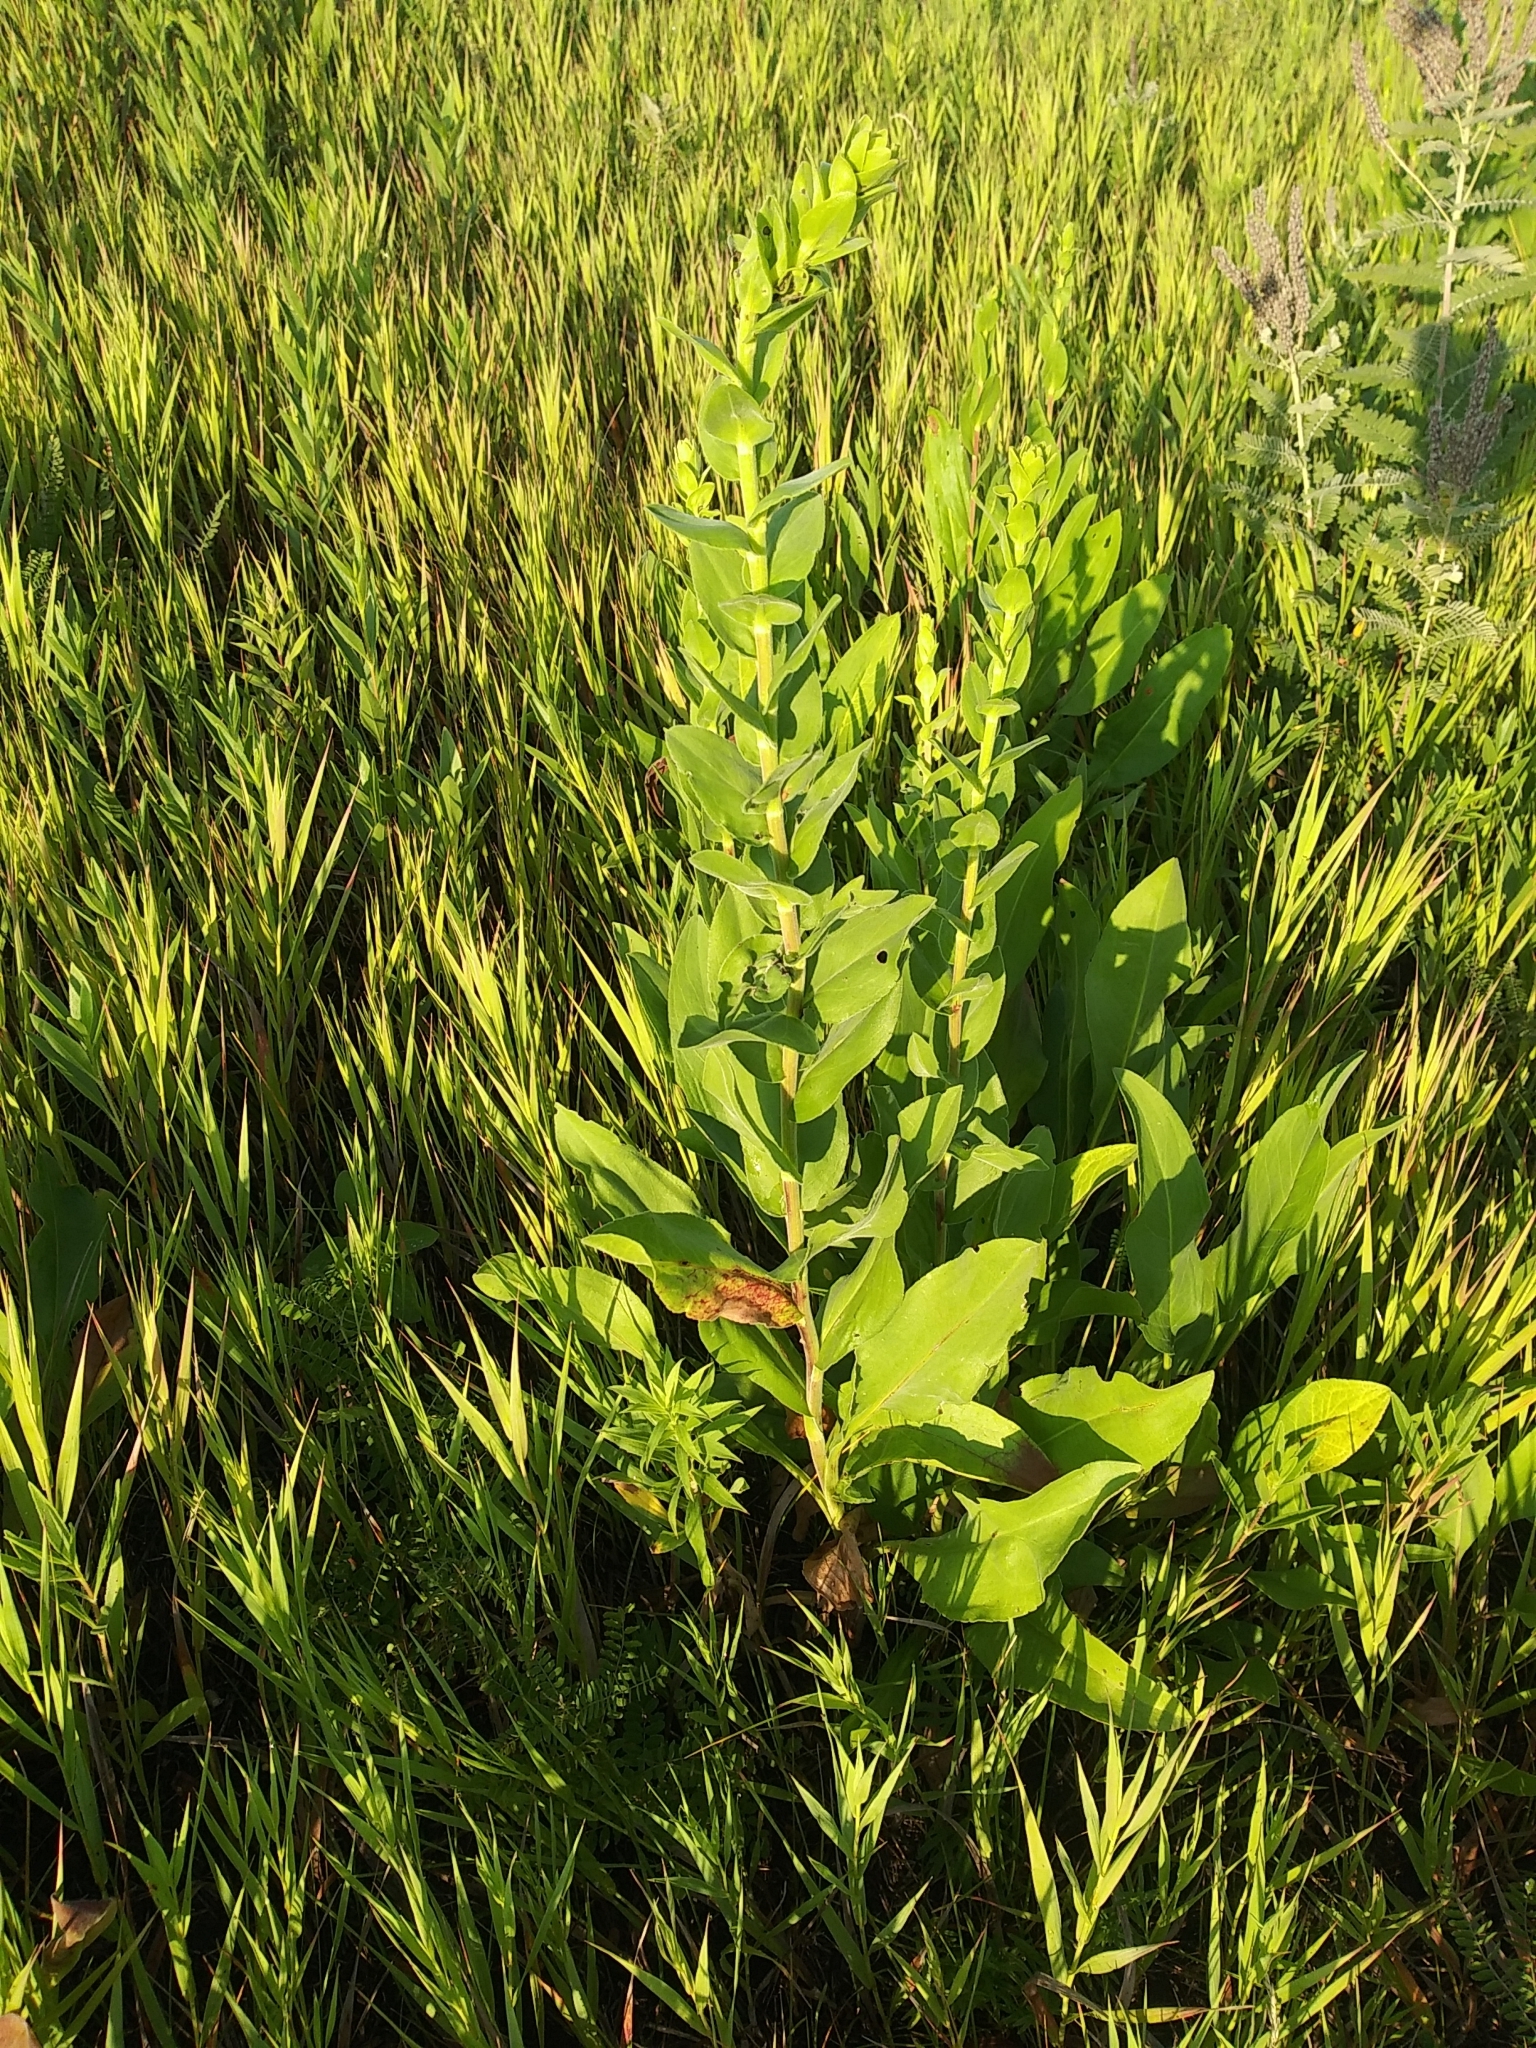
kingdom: Plantae
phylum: Tracheophyta
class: Magnoliopsida
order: Asterales
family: Asteraceae
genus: Solidago
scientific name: Solidago rigida
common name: Rigid goldenrod
